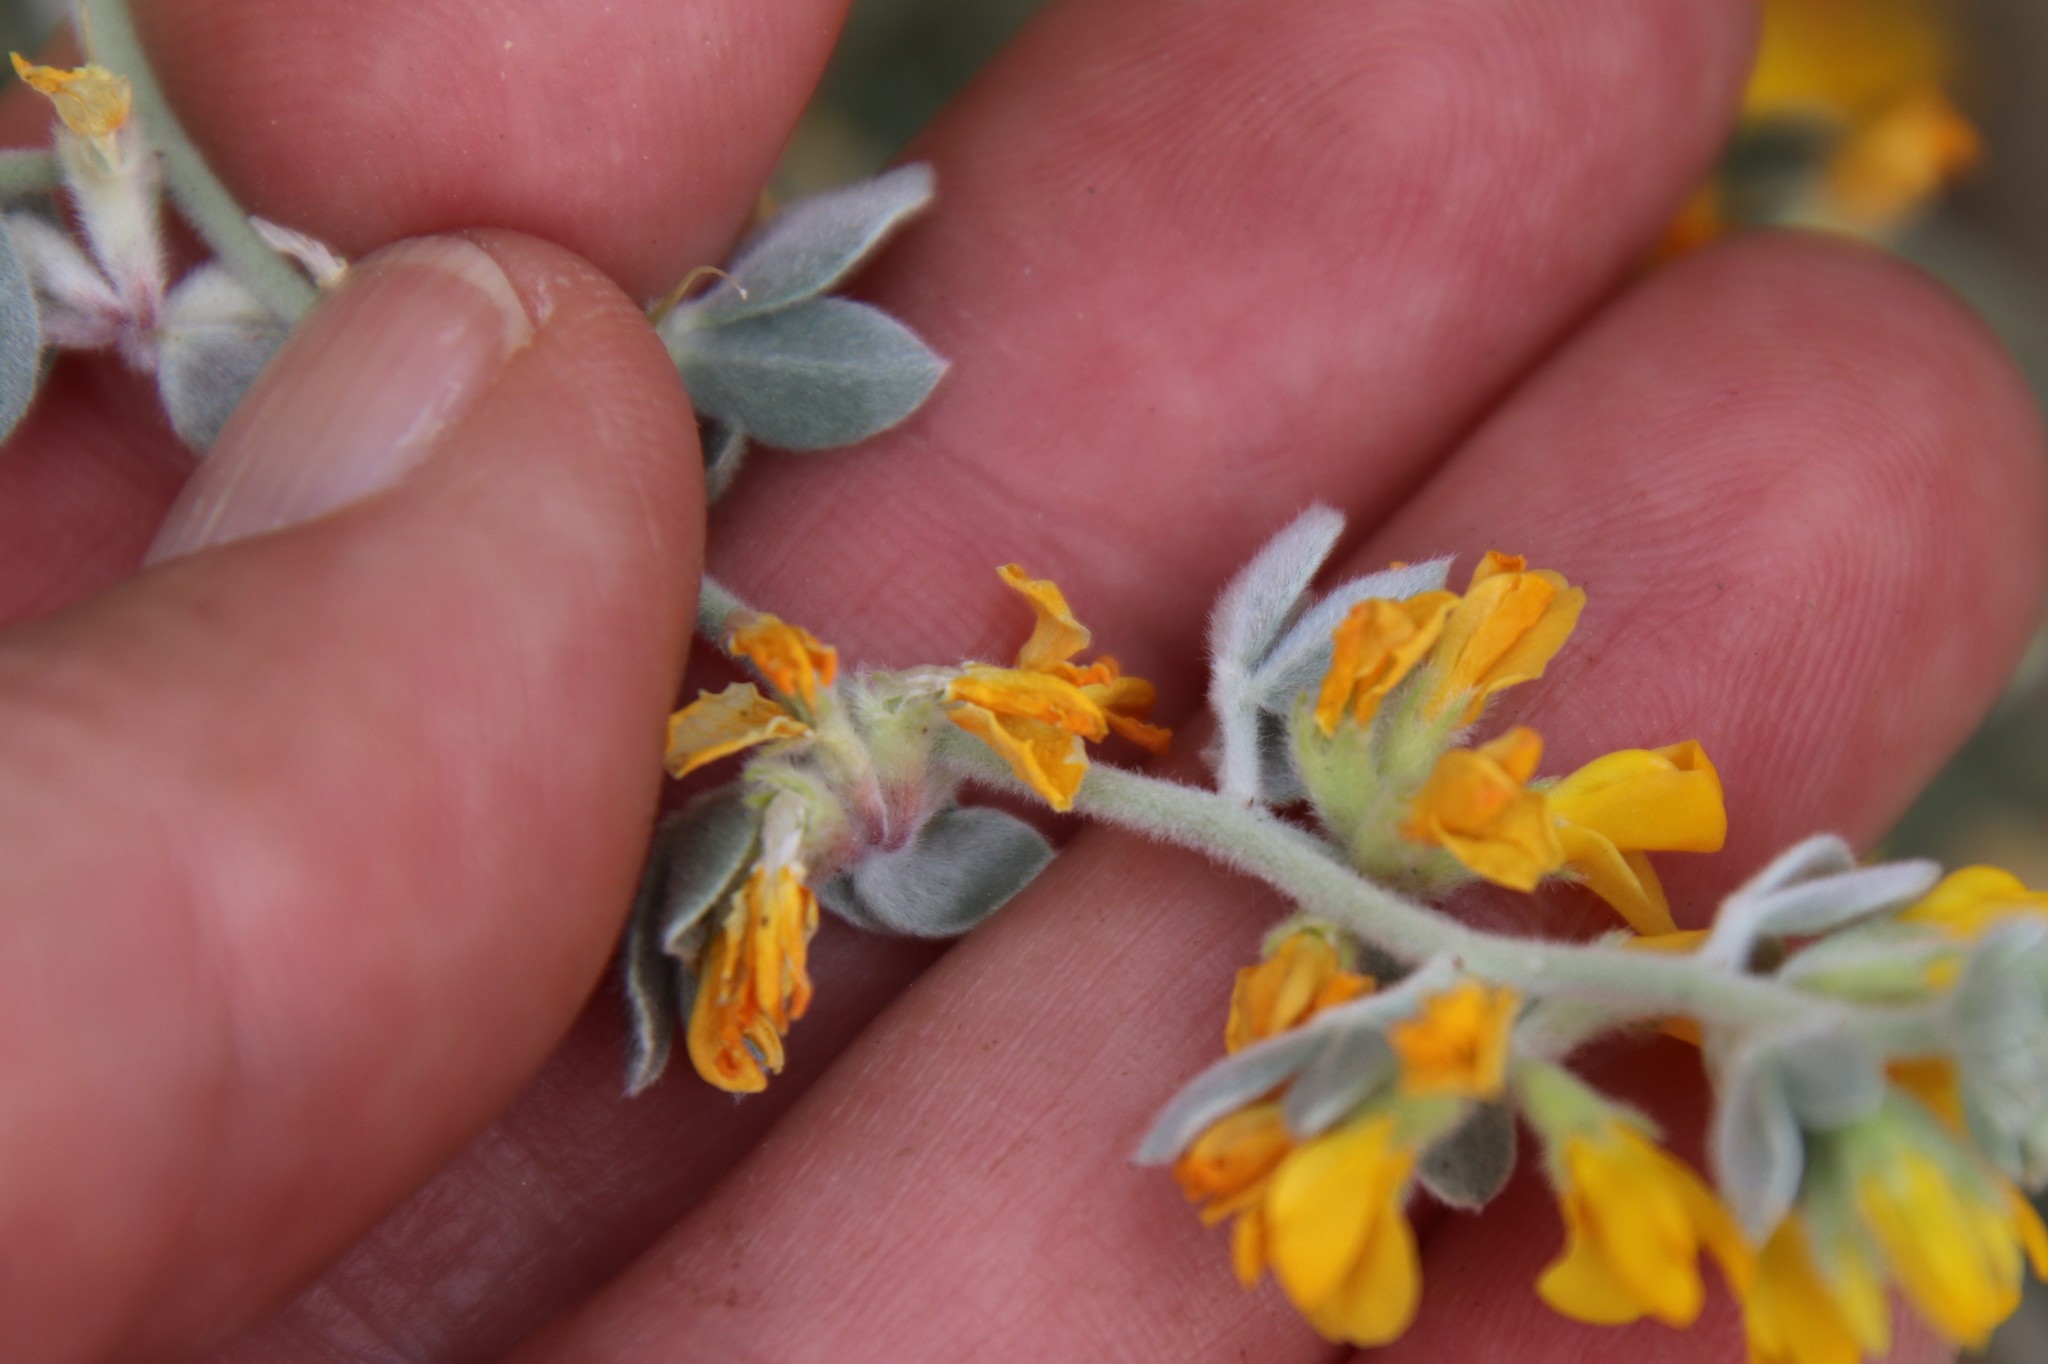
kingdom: Plantae
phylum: Tracheophyta
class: Magnoliopsida
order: Fabales
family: Fabaceae
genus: Acmispon
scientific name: Acmispon argophyllus
